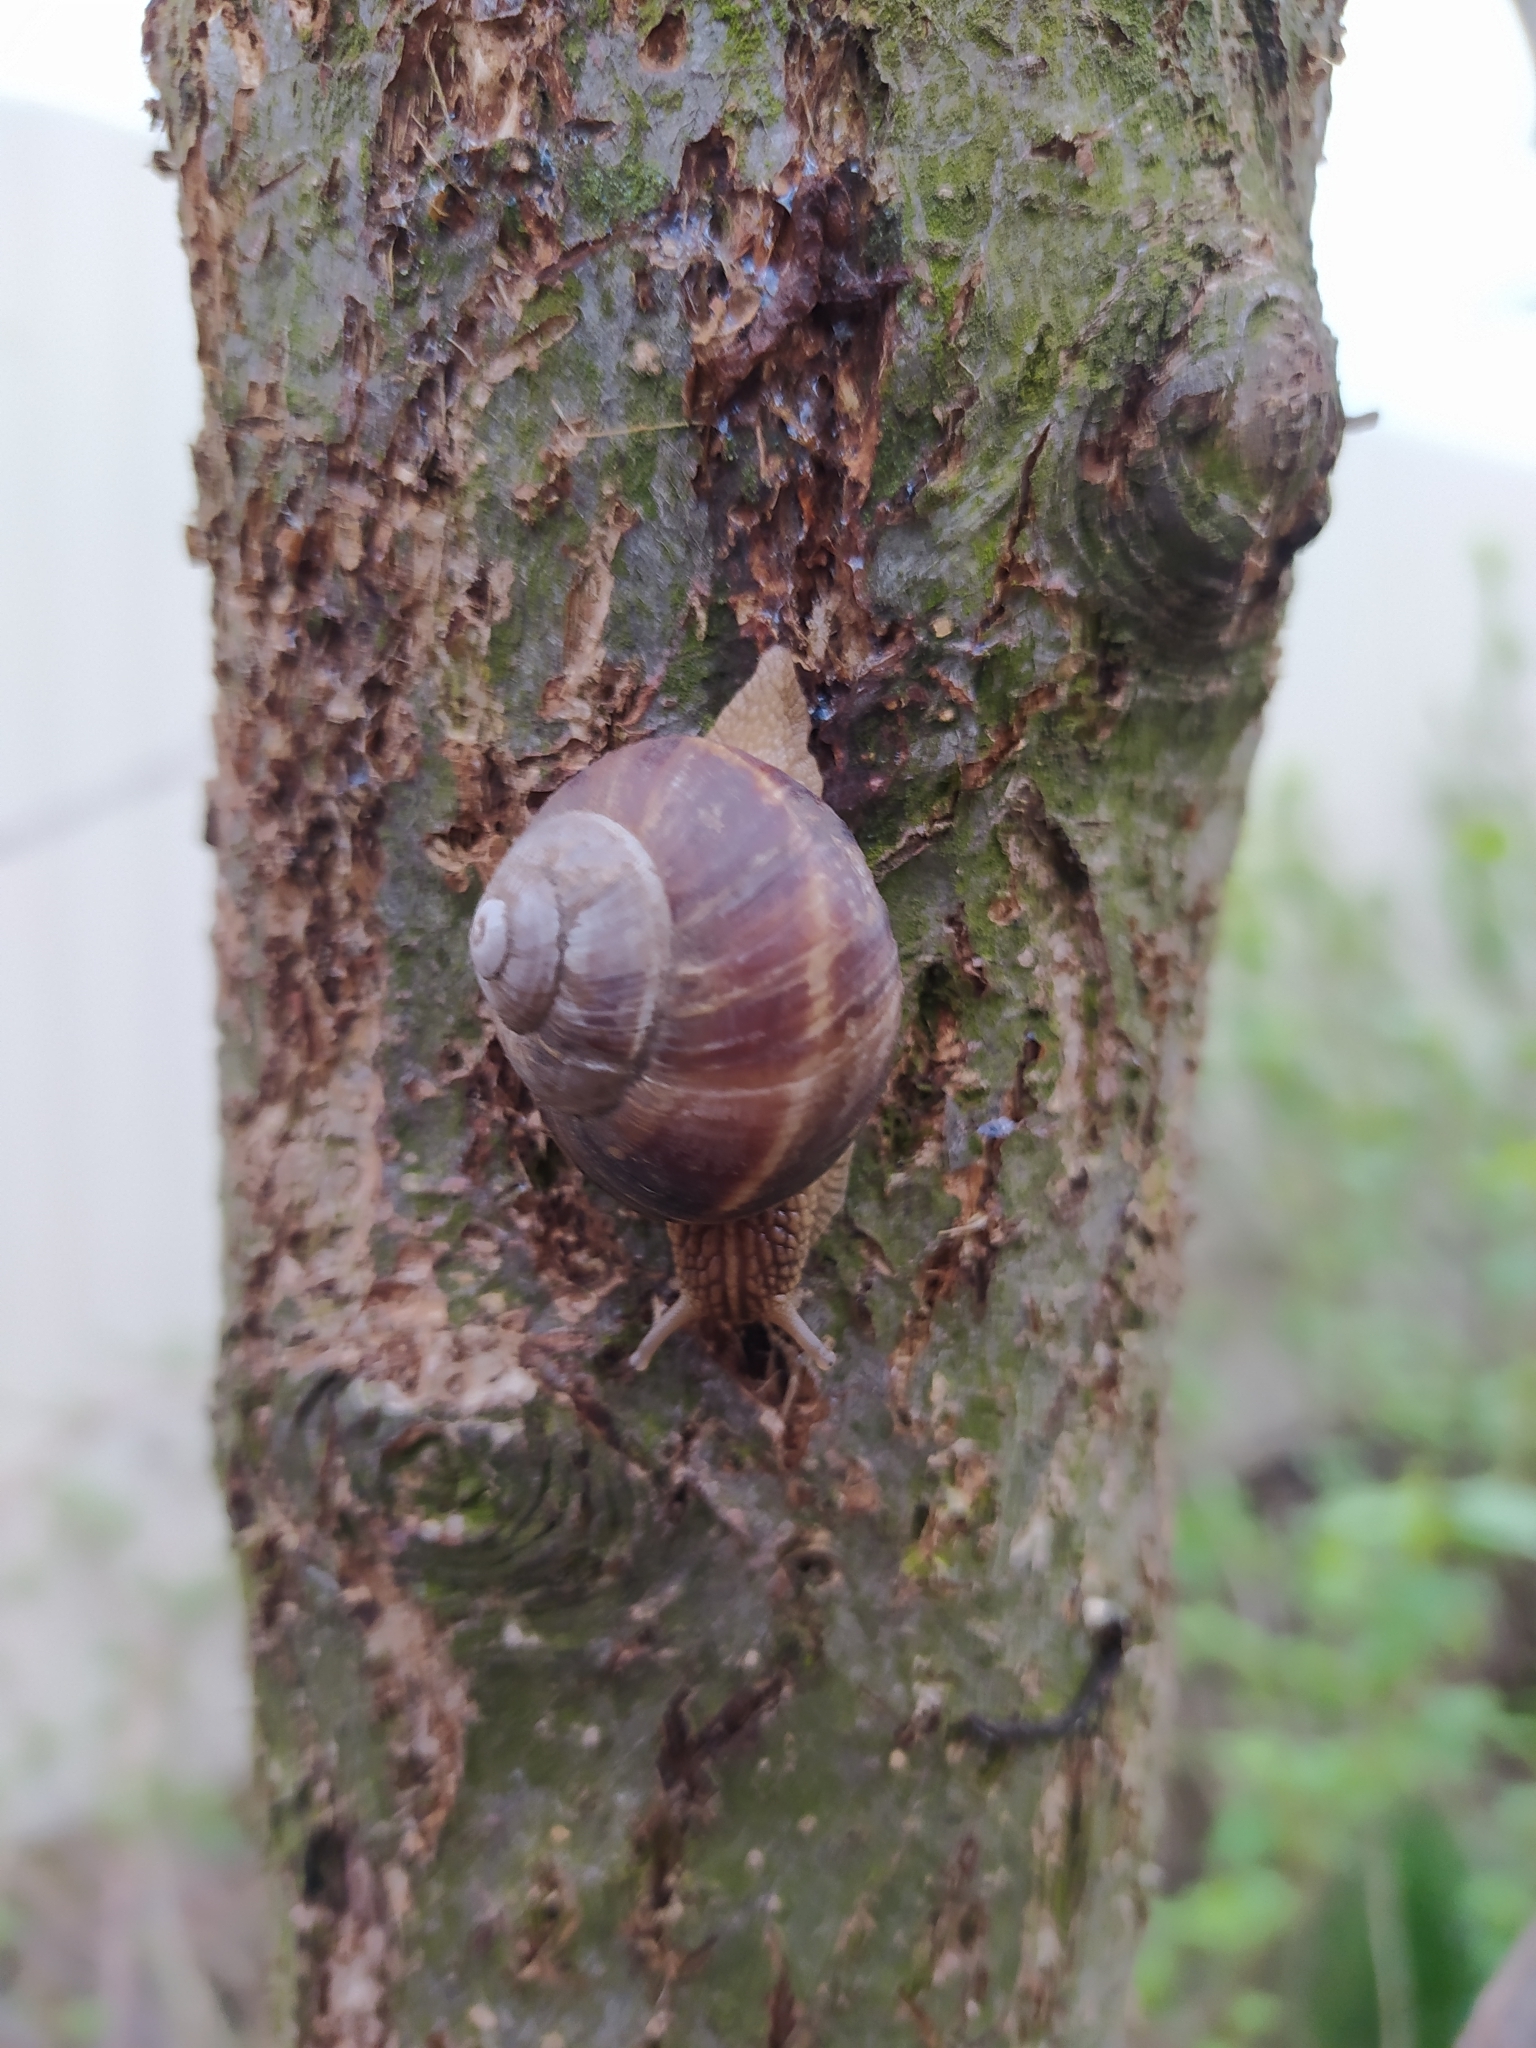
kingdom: Animalia
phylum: Mollusca
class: Gastropoda
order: Stylommatophora
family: Helicidae
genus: Helix
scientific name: Helix lucorum
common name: Turkish snail
